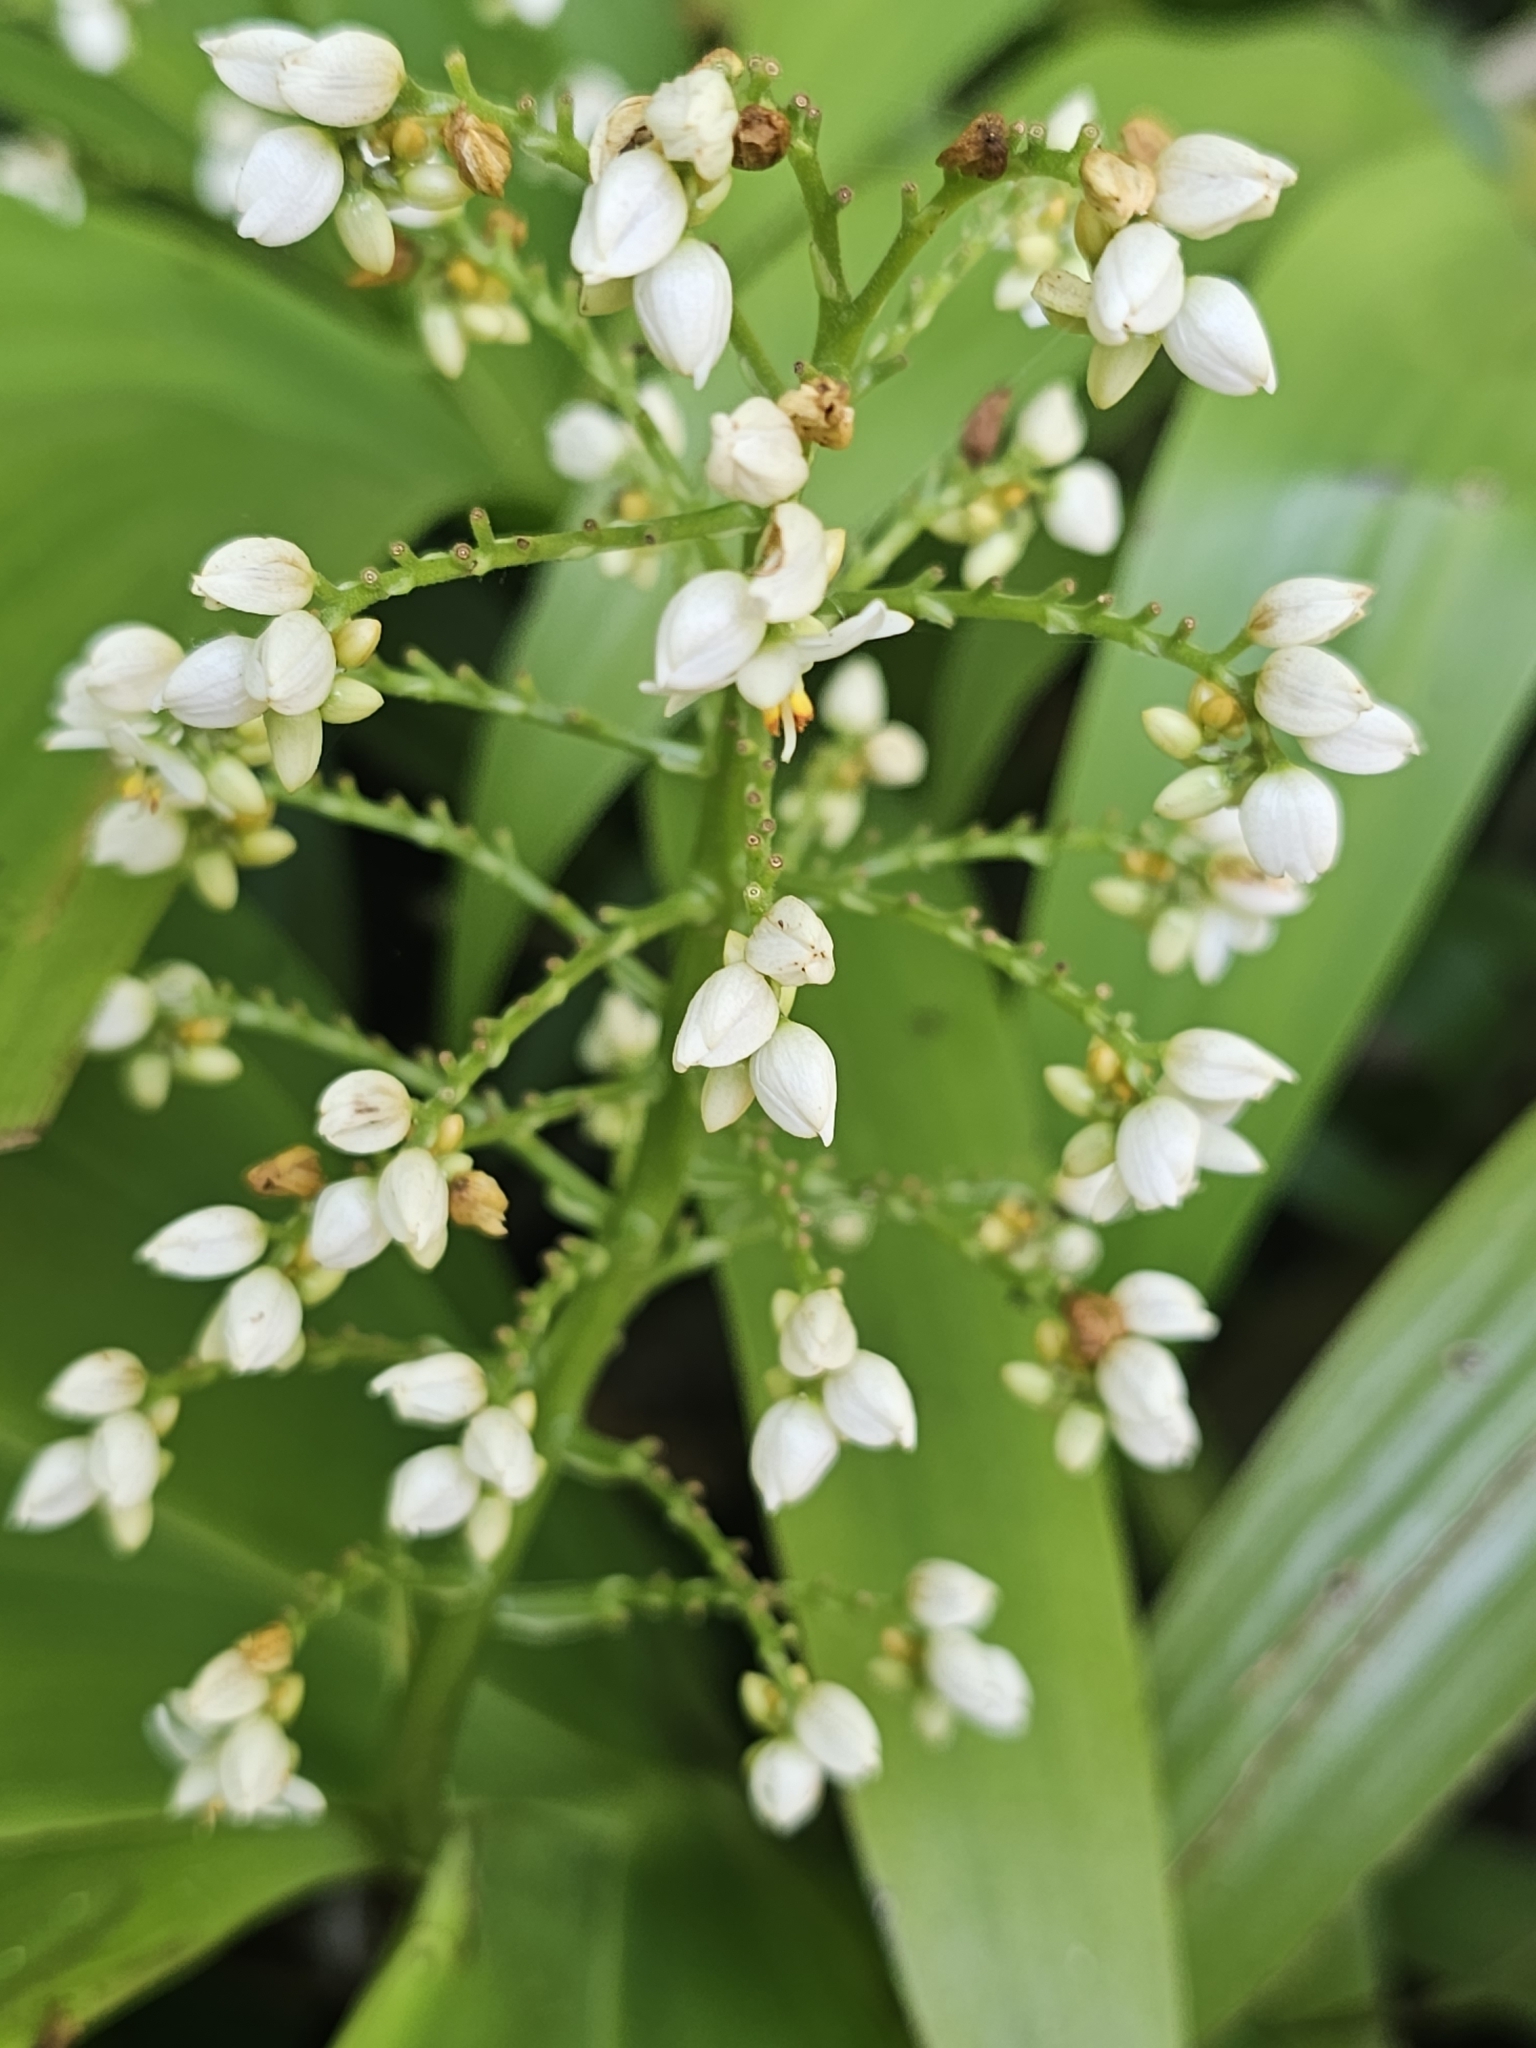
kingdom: Plantae
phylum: Tracheophyta
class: Liliopsida
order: Commelinales
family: Haemodoraceae
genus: Xiphidium
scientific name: Xiphidium caeruleum
